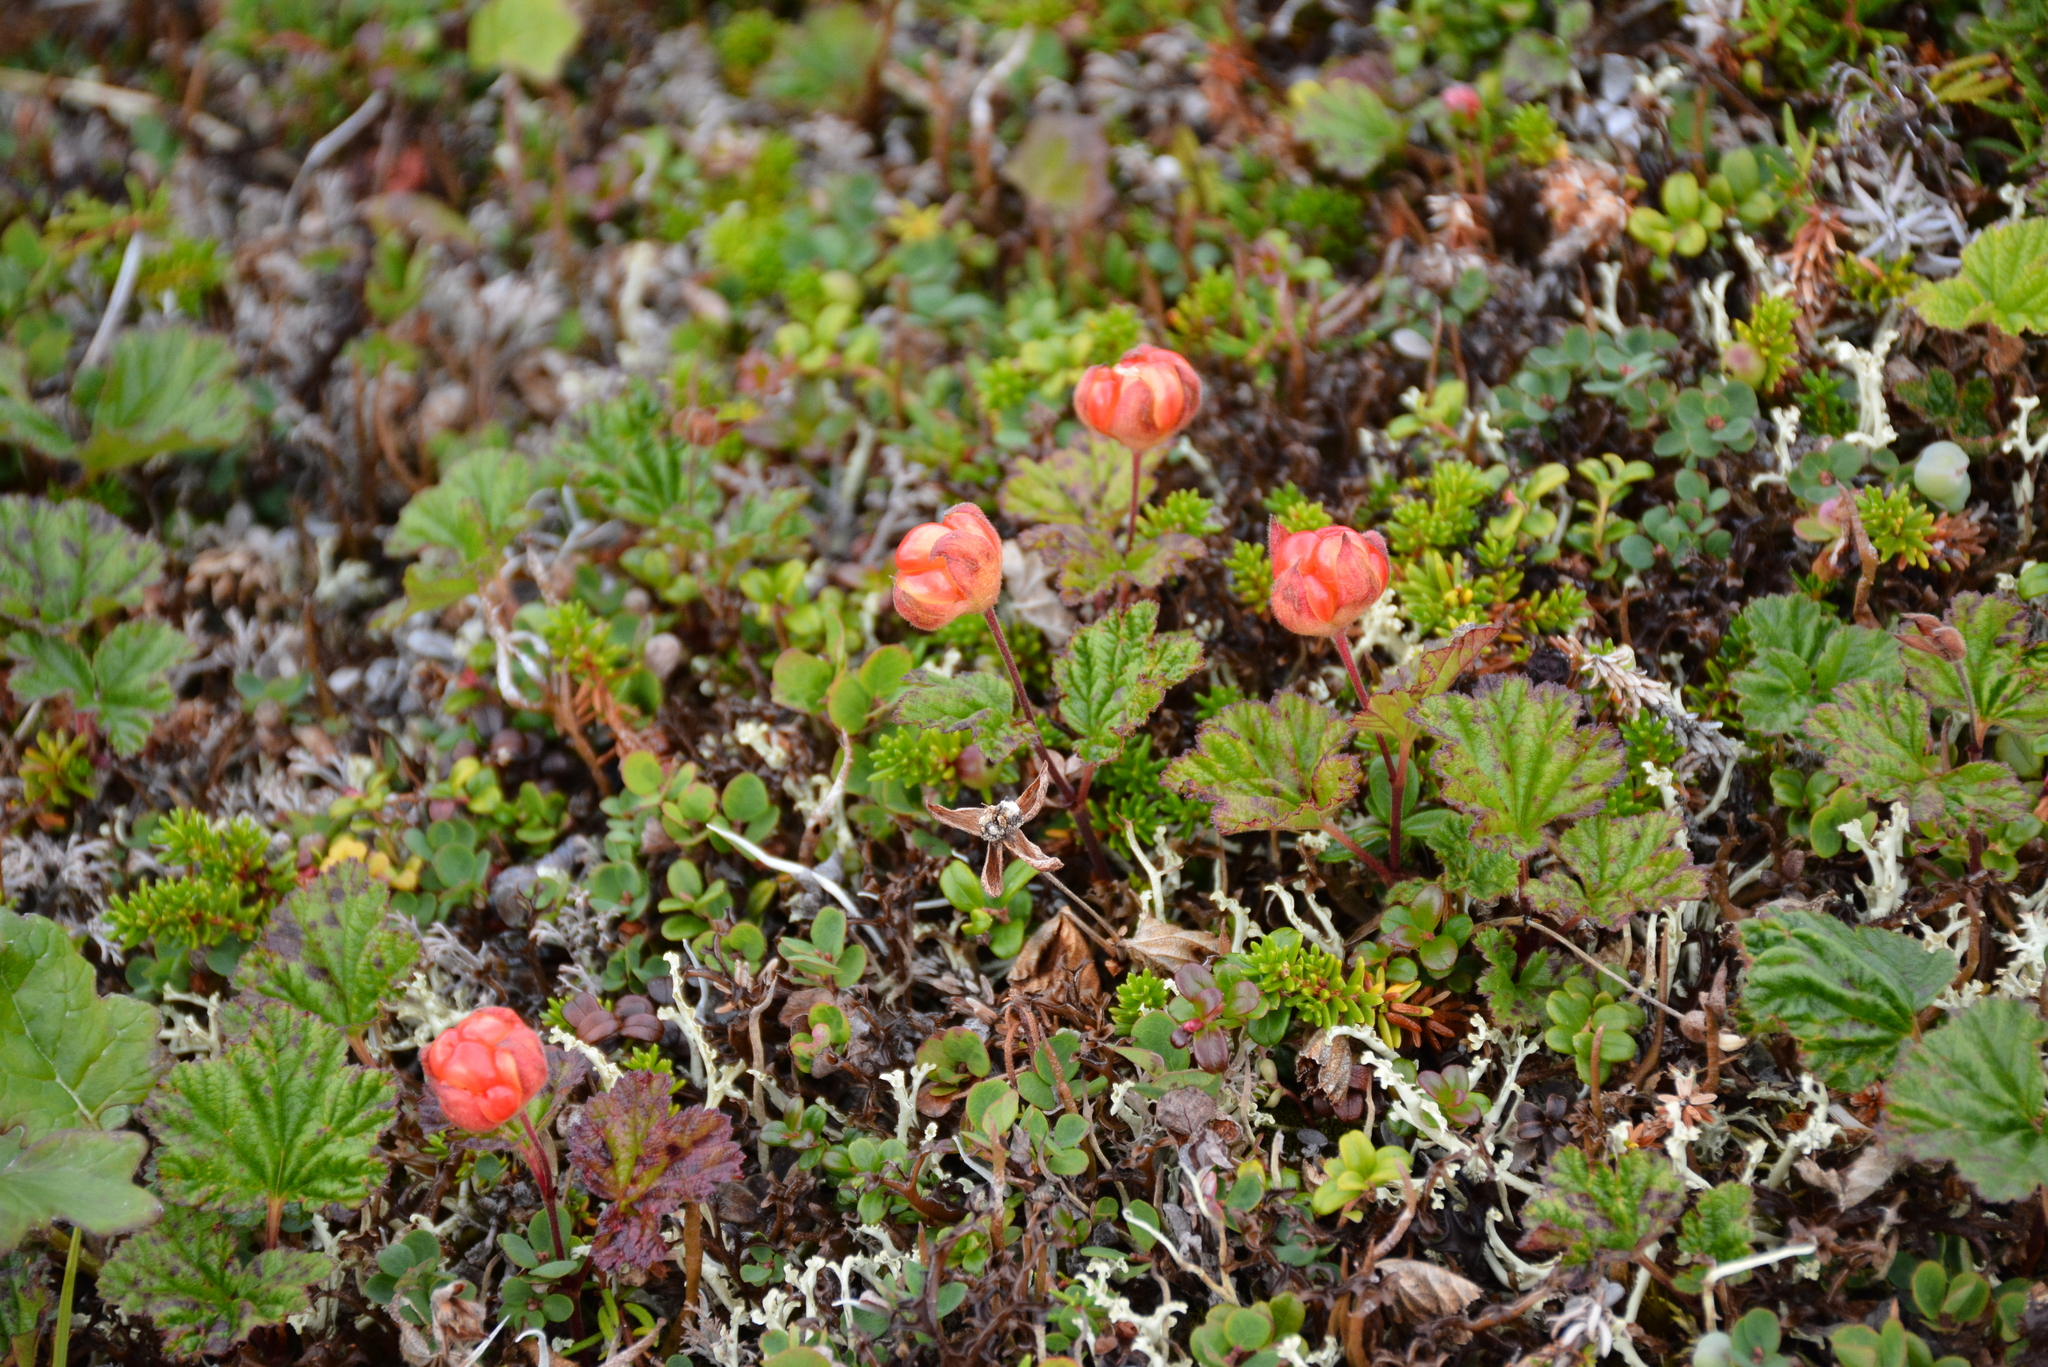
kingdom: Plantae
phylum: Tracheophyta
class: Magnoliopsida
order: Rosales
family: Rosaceae
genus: Rubus
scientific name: Rubus chamaemorus
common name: Cloudberry
